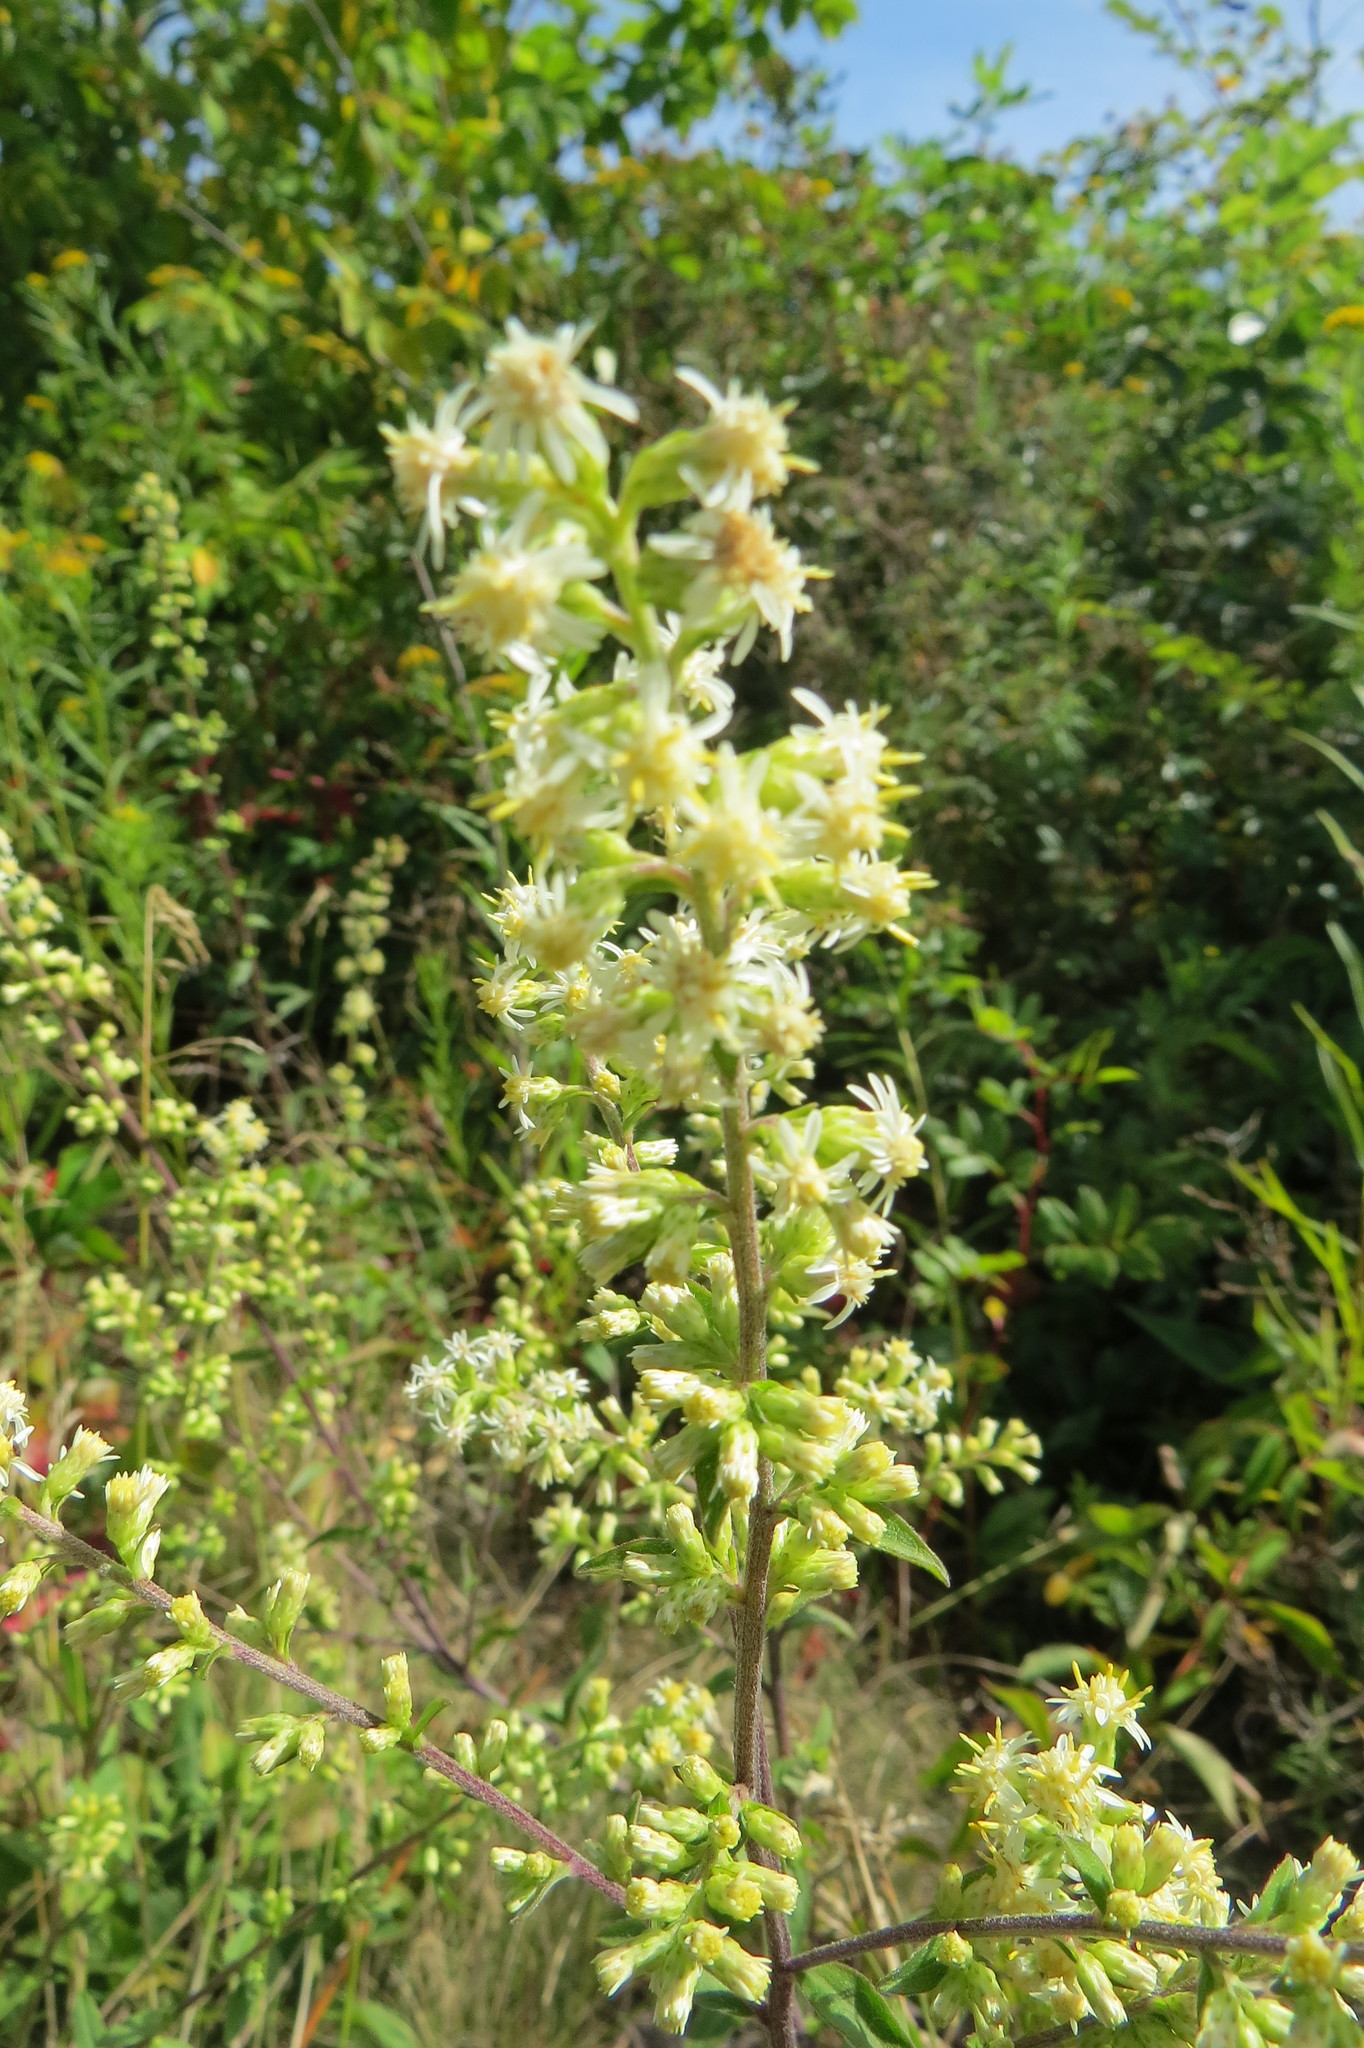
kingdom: Plantae
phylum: Tracheophyta
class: Magnoliopsida
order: Asterales
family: Asteraceae
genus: Solidago
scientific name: Solidago bicolor
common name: Silverrod
